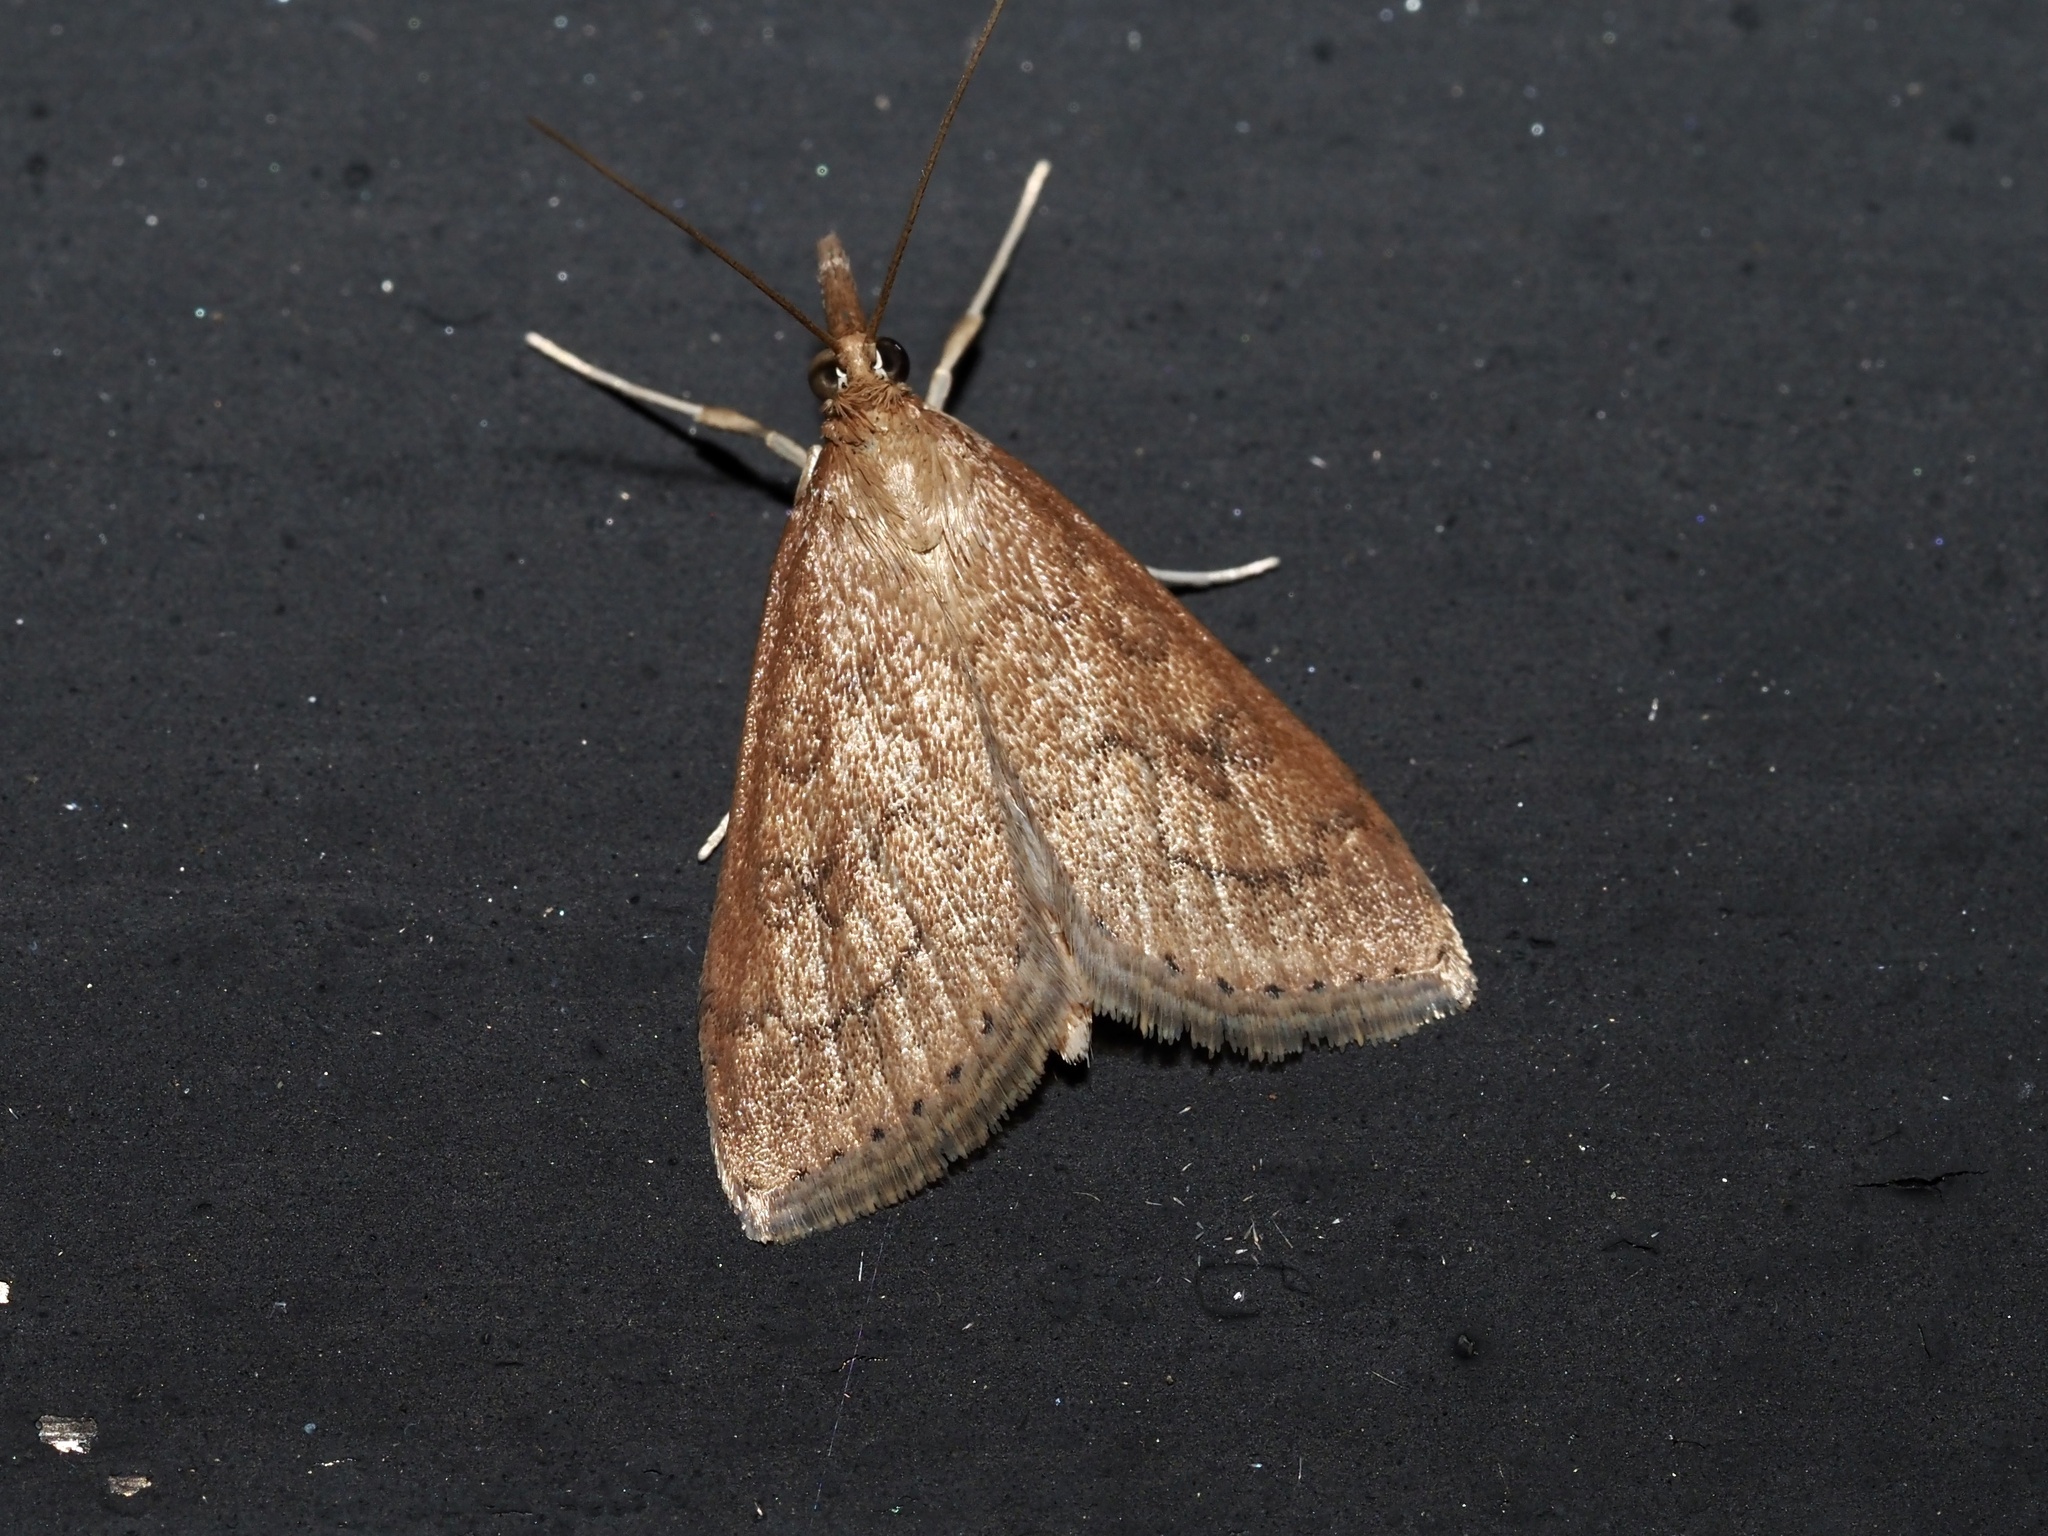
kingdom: Animalia
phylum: Arthropoda
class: Insecta
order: Lepidoptera
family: Crambidae
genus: Udea
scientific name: Udea rubigalis
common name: Celery leaftier moth
